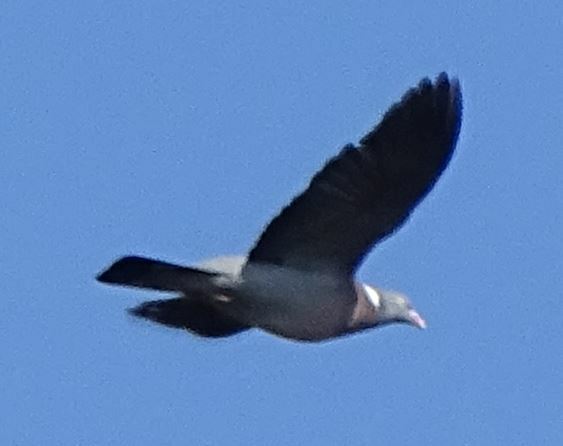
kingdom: Animalia
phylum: Chordata
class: Aves
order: Columbiformes
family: Columbidae
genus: Columba
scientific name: Columba palumbus
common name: Common wood pigeon
